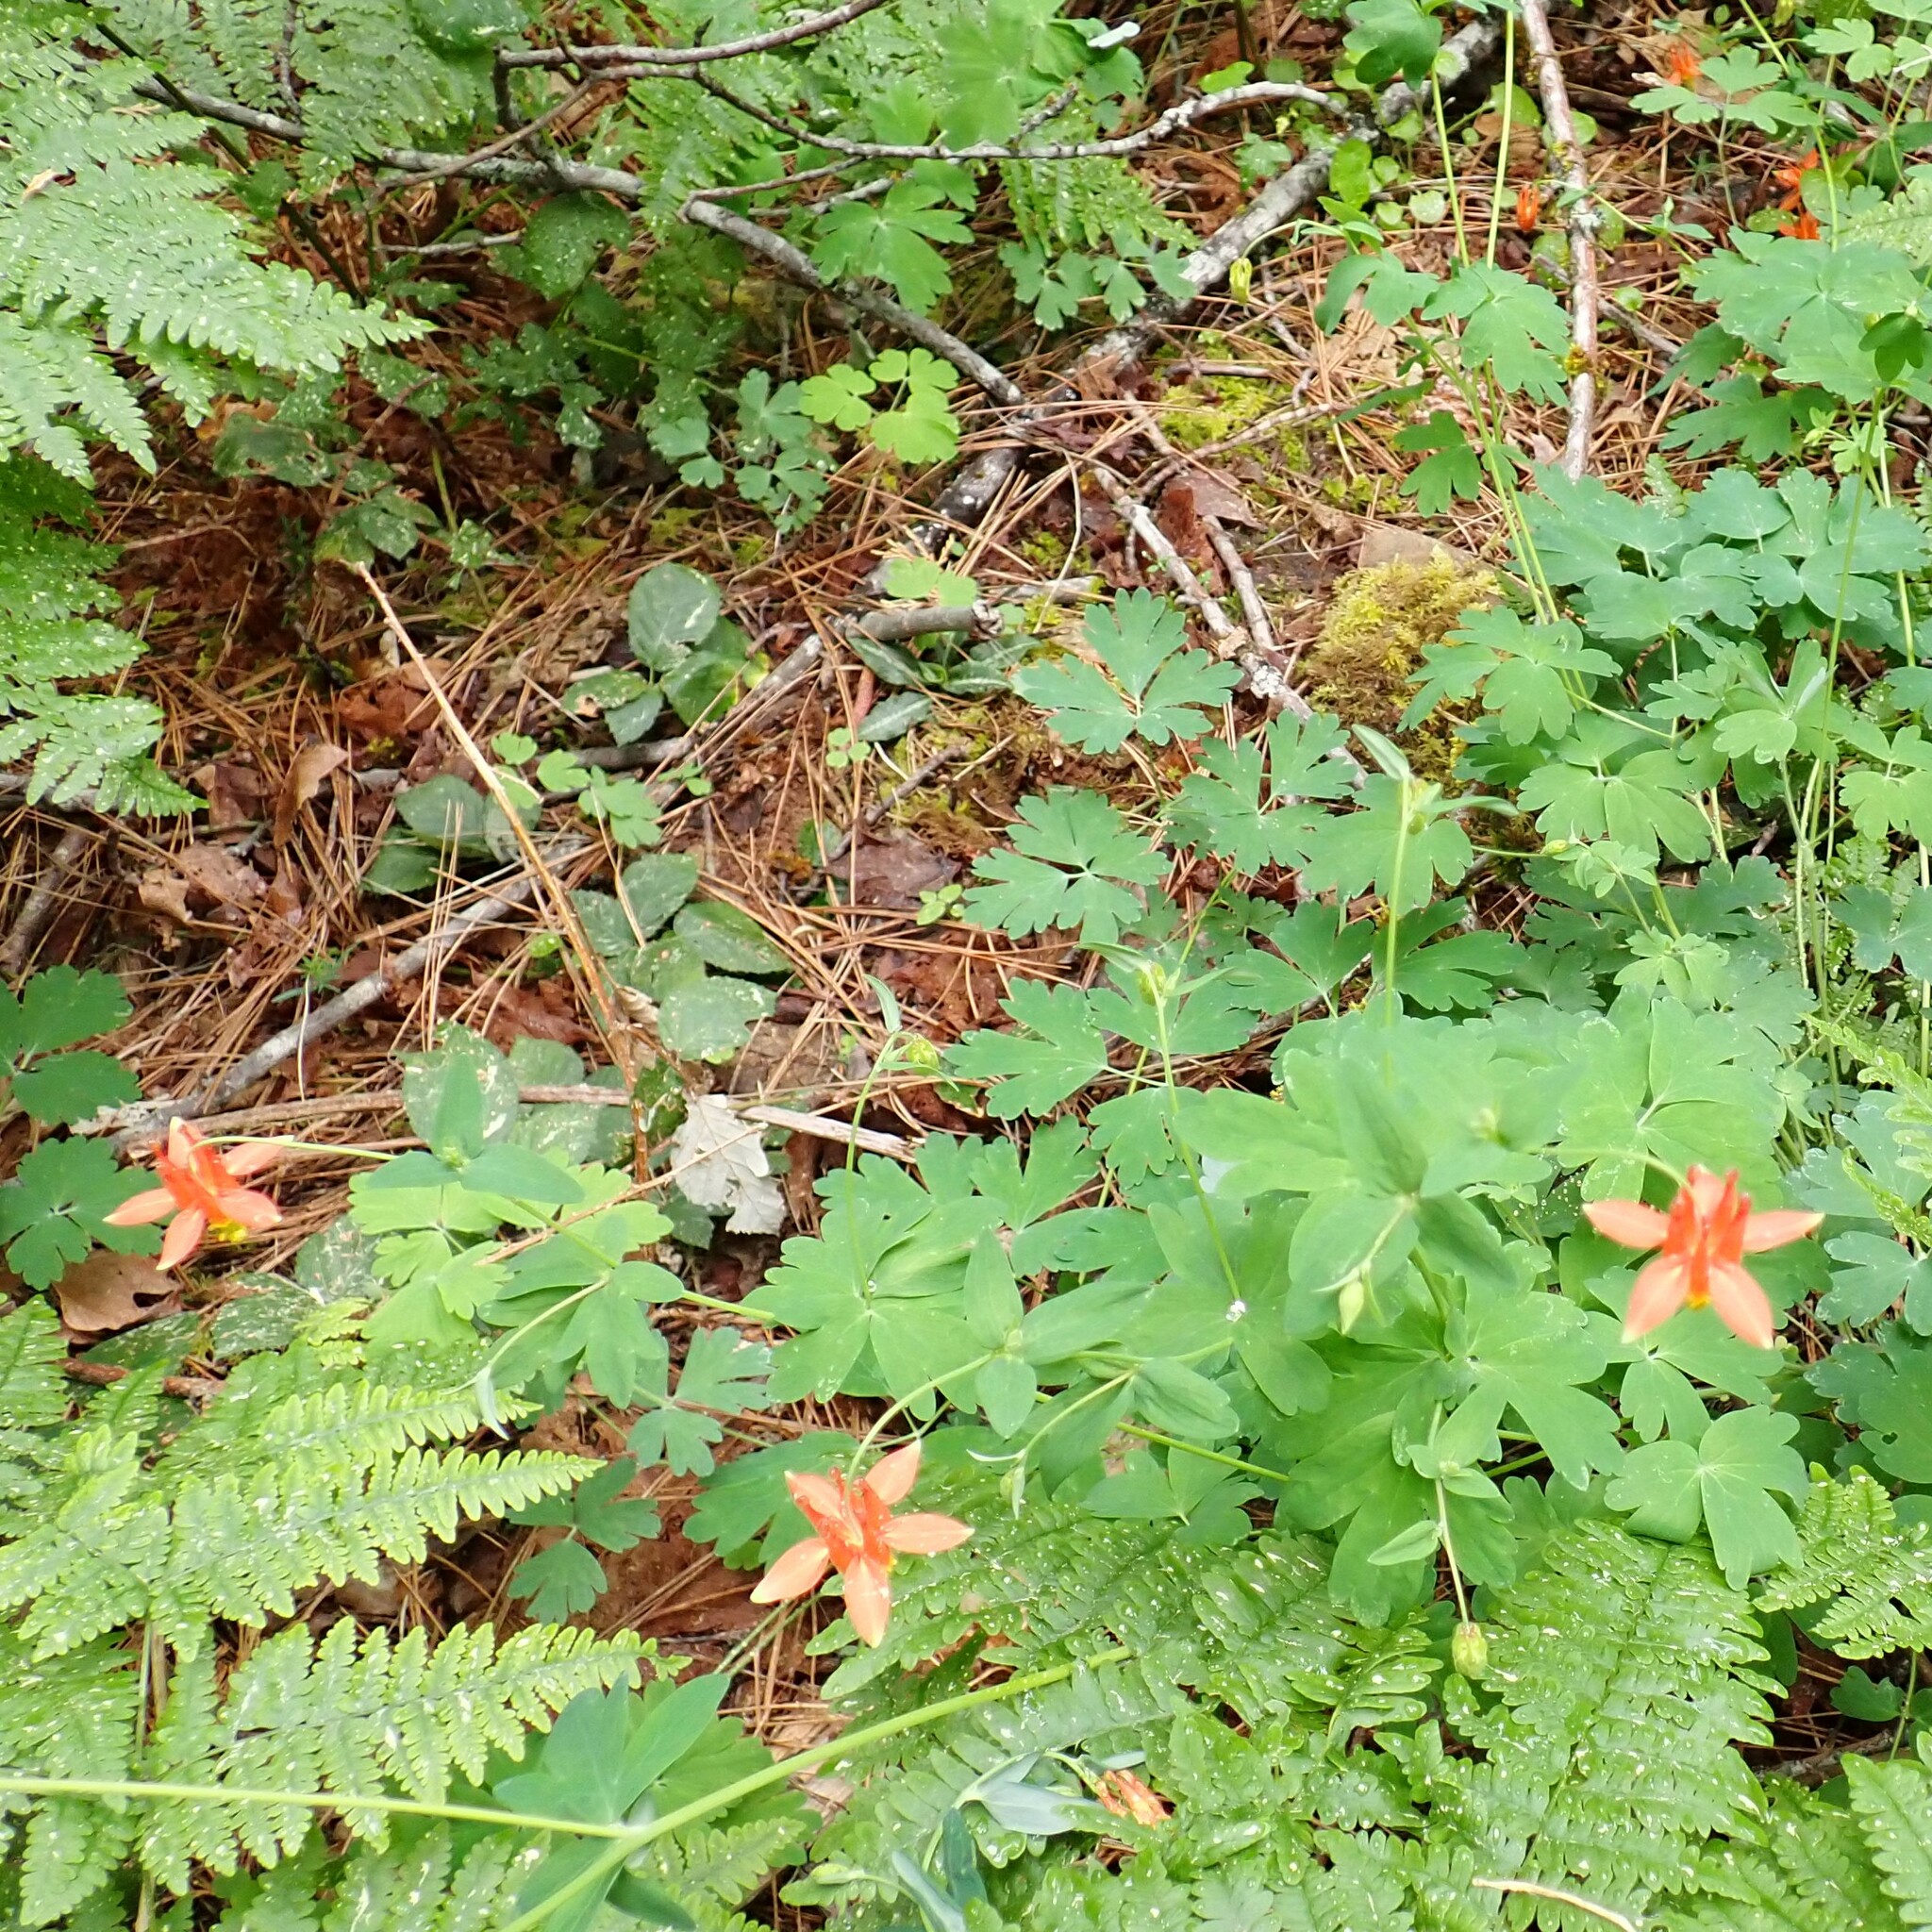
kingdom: Plantae
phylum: Tracheophyta
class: Magnoliopsida
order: Ranunculales
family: Ranunculaceae
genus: Aquilegia
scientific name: Aquilegia formosa
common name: Sitka columbine
